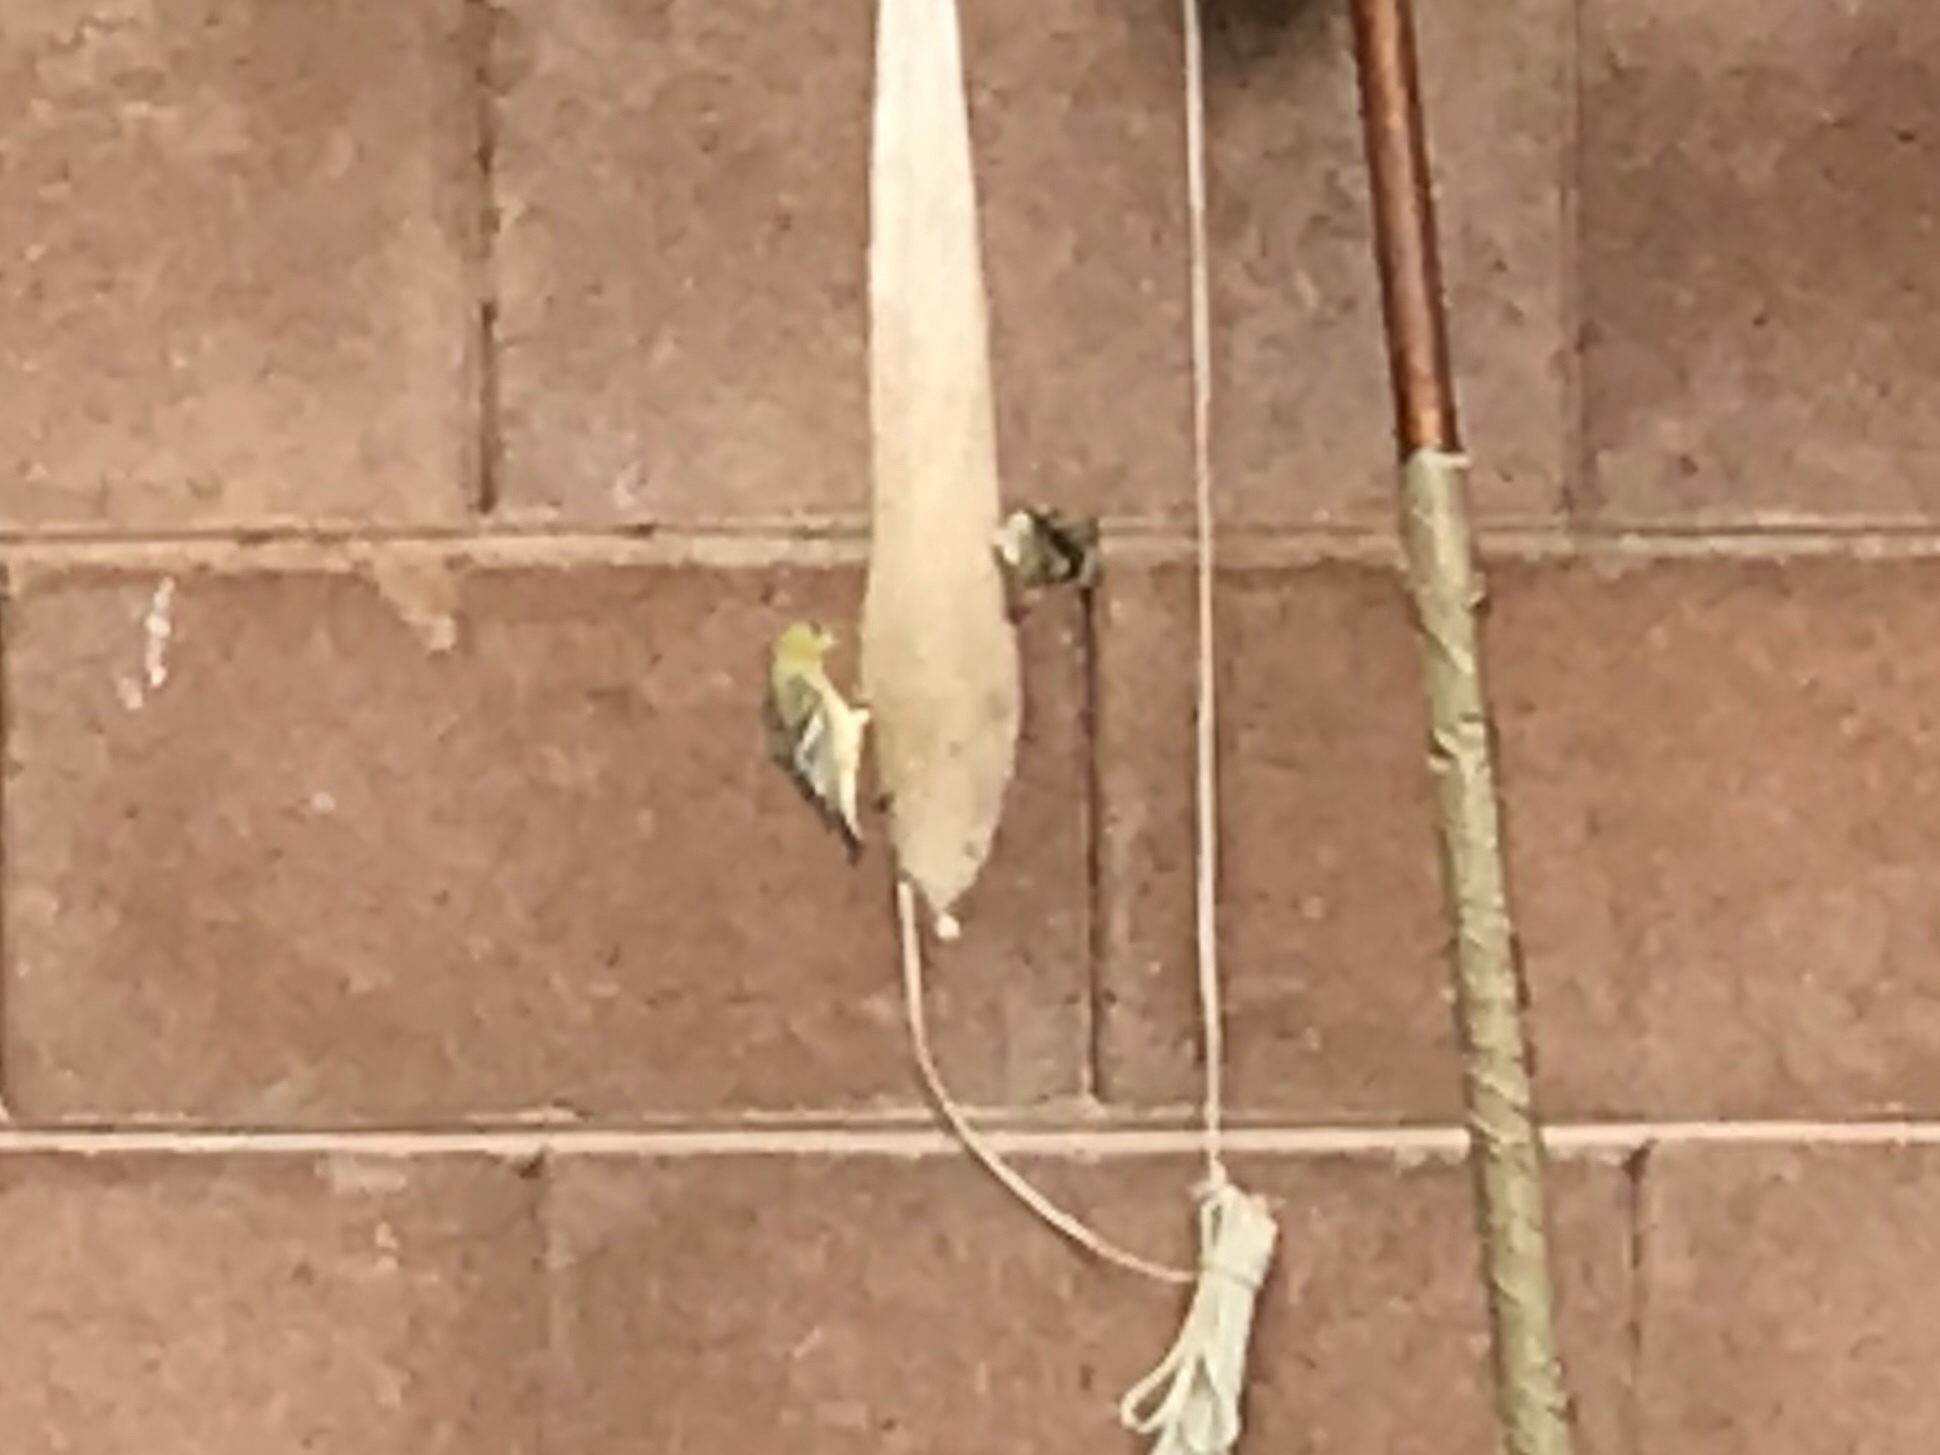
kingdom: Animalia
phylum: Chordata
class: Aves
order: Passeriformes
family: Fringillidae
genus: Spinus
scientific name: Spinus psaltria
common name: Lesser goldfinch
